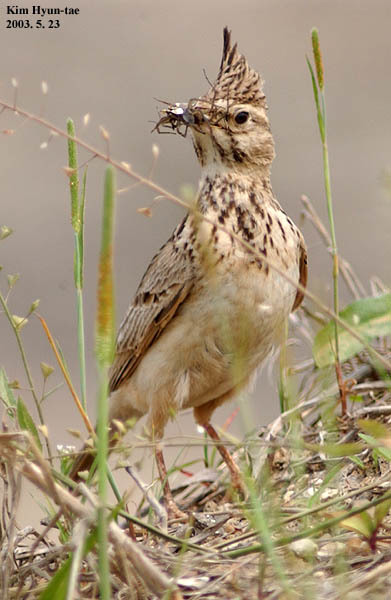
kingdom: Animalia
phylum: Chordata
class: Aves
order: Passeriformes
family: Alaudidae
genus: Galerida
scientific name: Galerida cristata
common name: Crested lark
